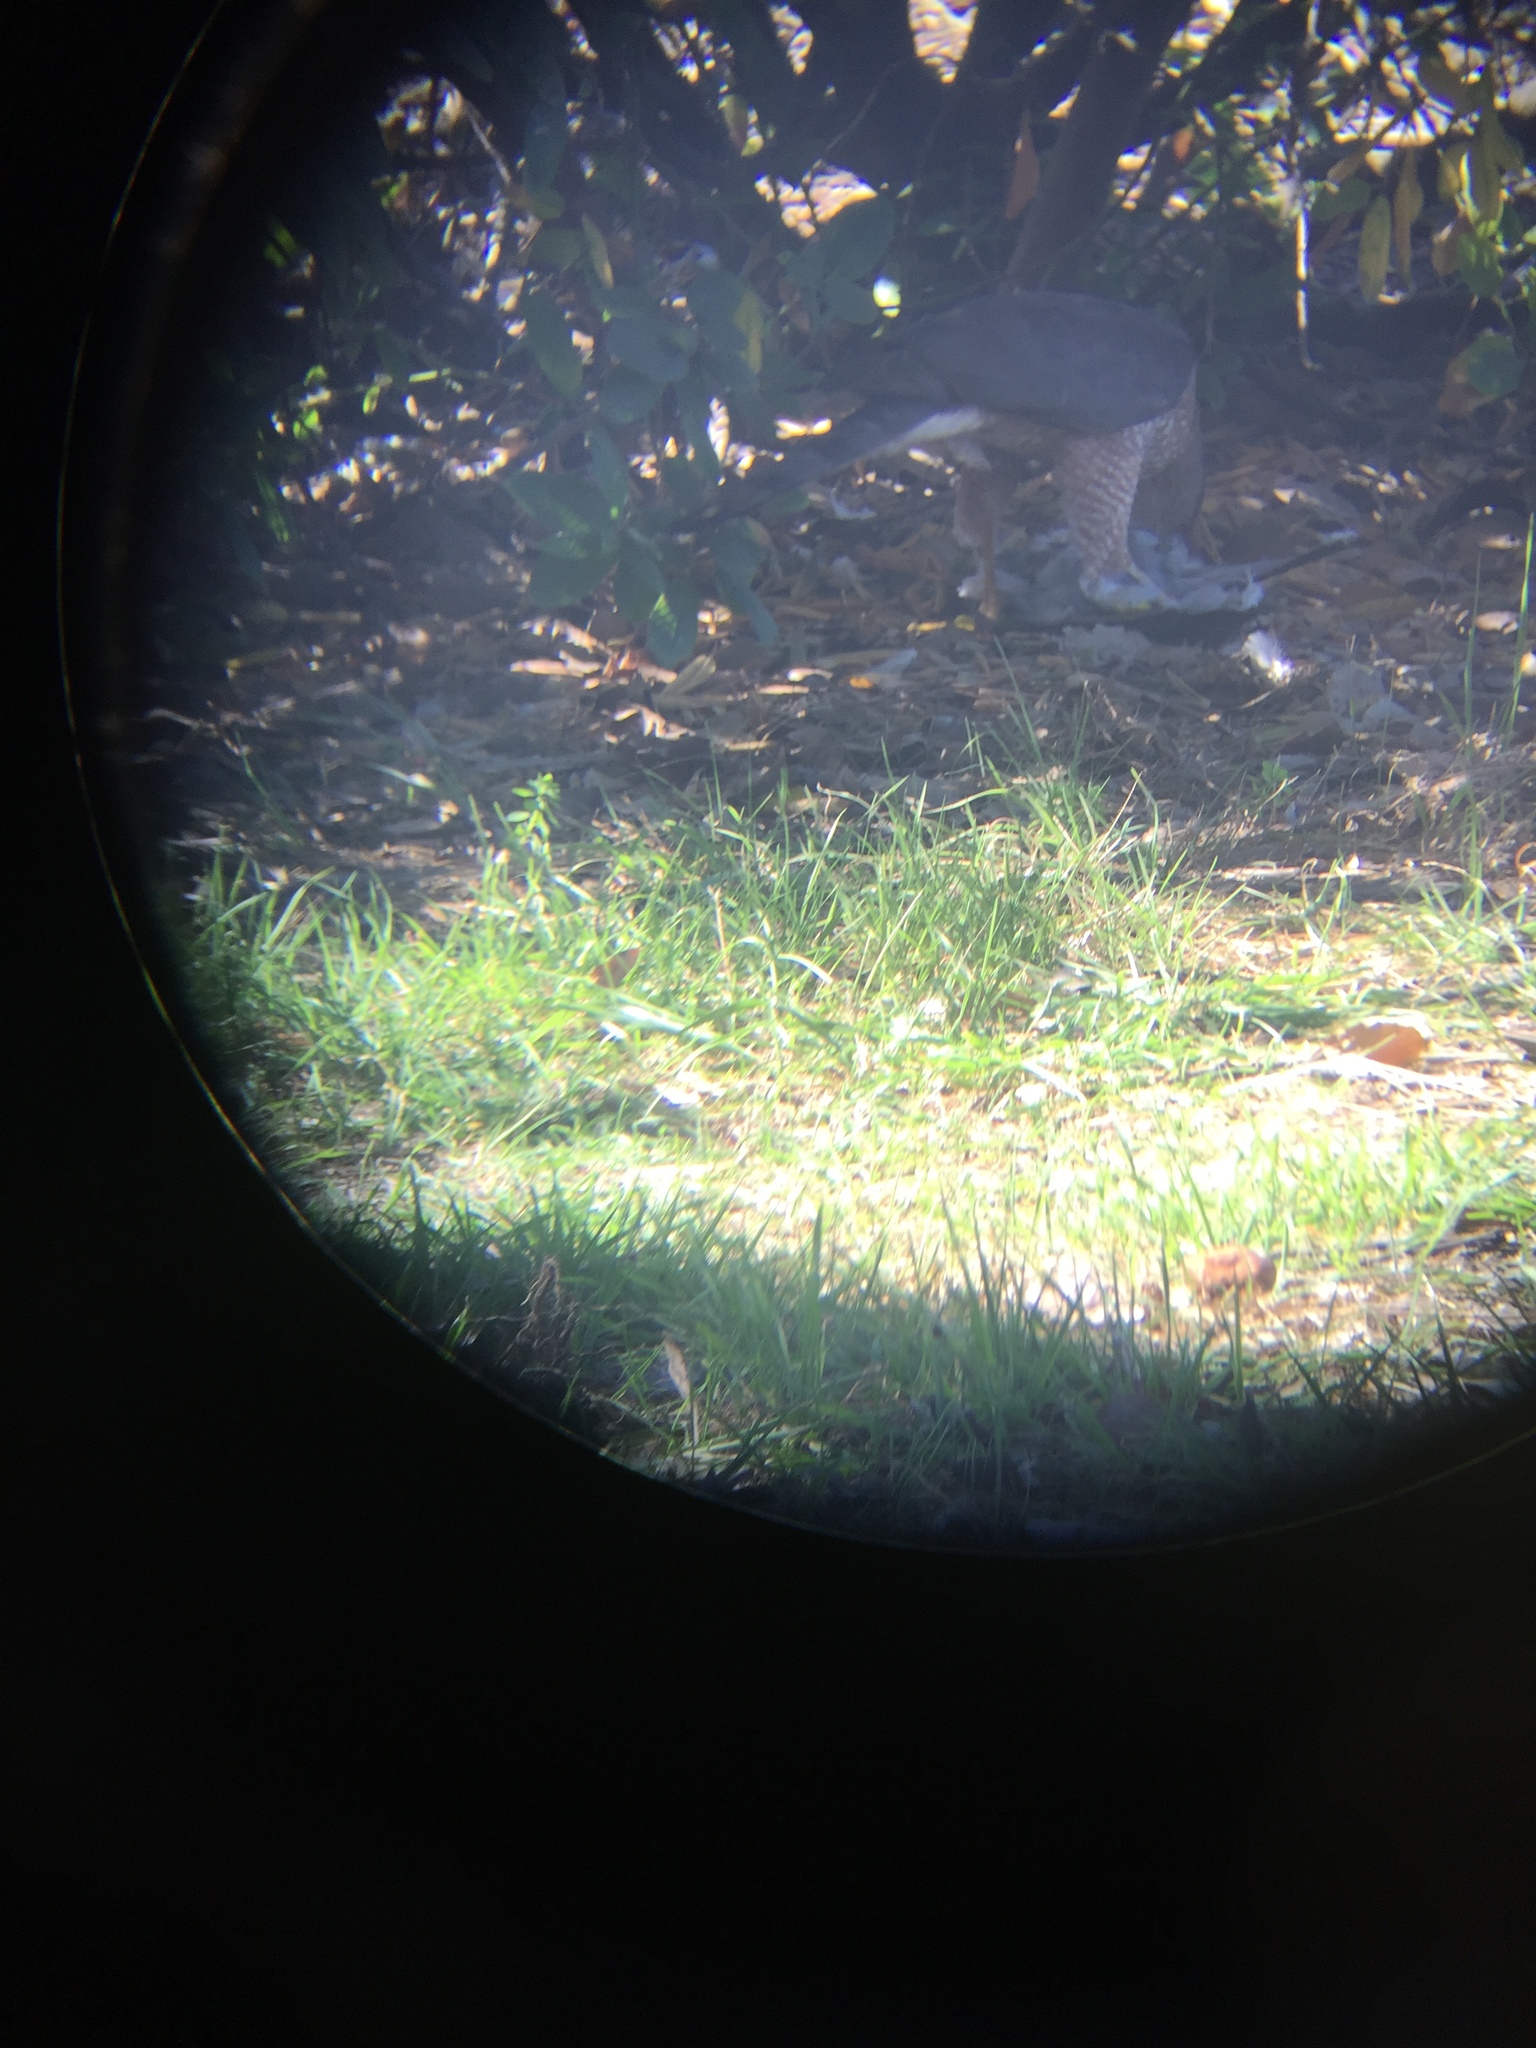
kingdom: Animalia
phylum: Chordata
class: Aves
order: Accipitriformes
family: Accipitridae
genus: Accipiter
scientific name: Accipiter cooperii
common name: Cooper's hawk
